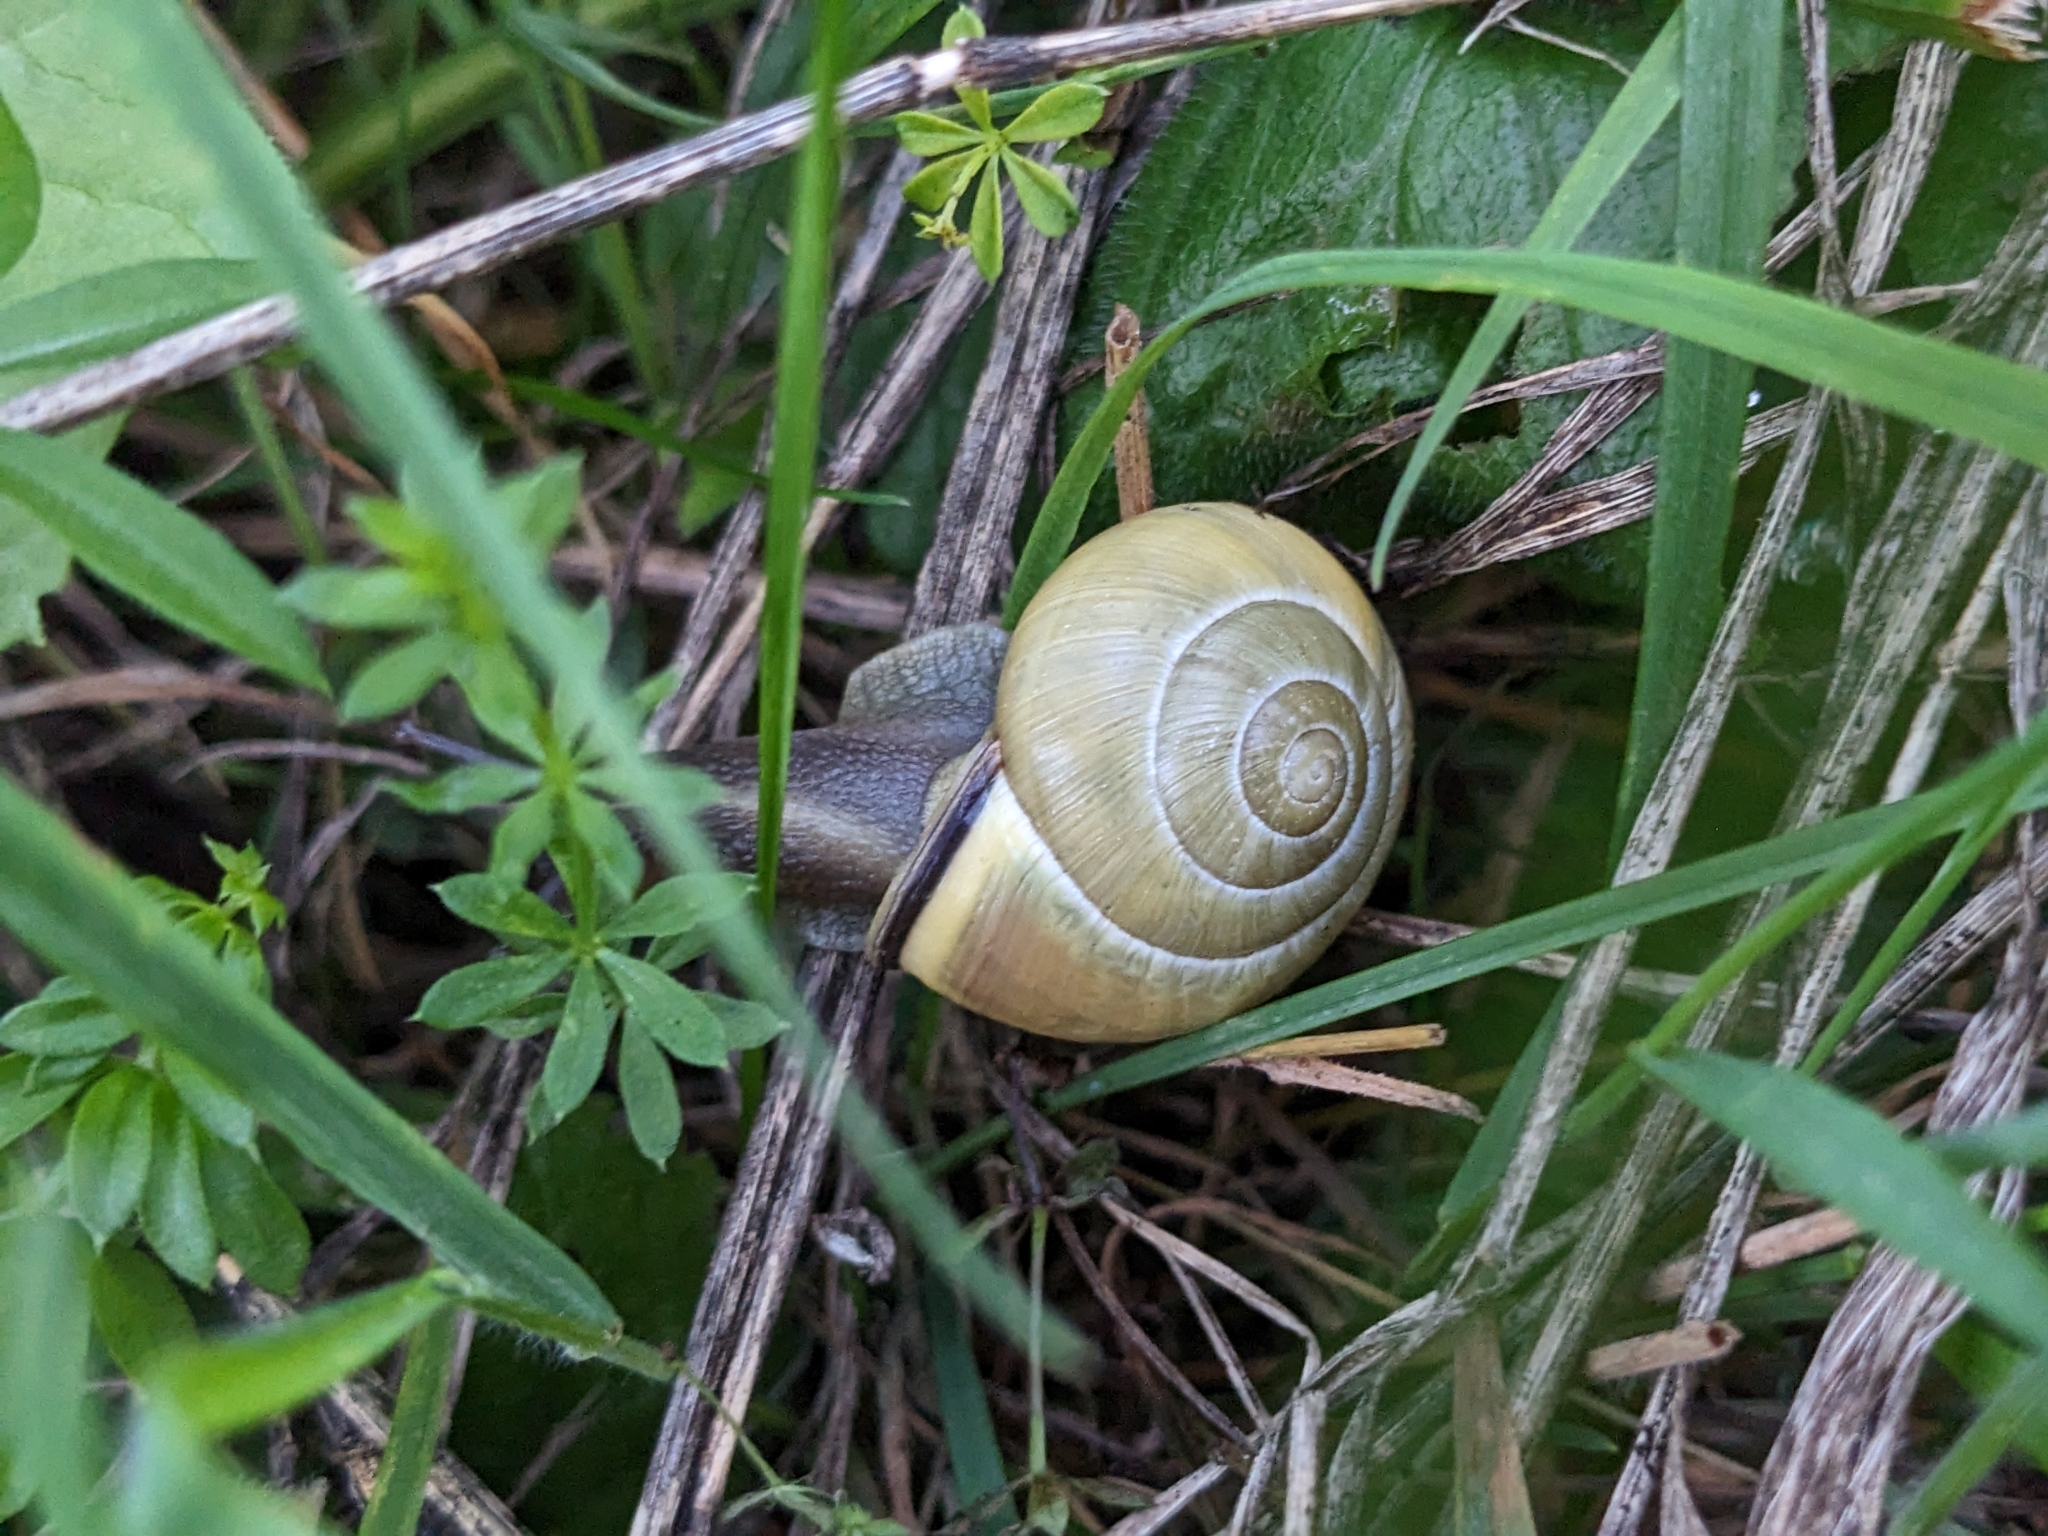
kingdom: Animalia
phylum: Mollusca
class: Gastropoda
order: Stylommatophora
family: Helicidae
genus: Cepaea
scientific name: Cepaea nemoralis
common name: Grovesnail
